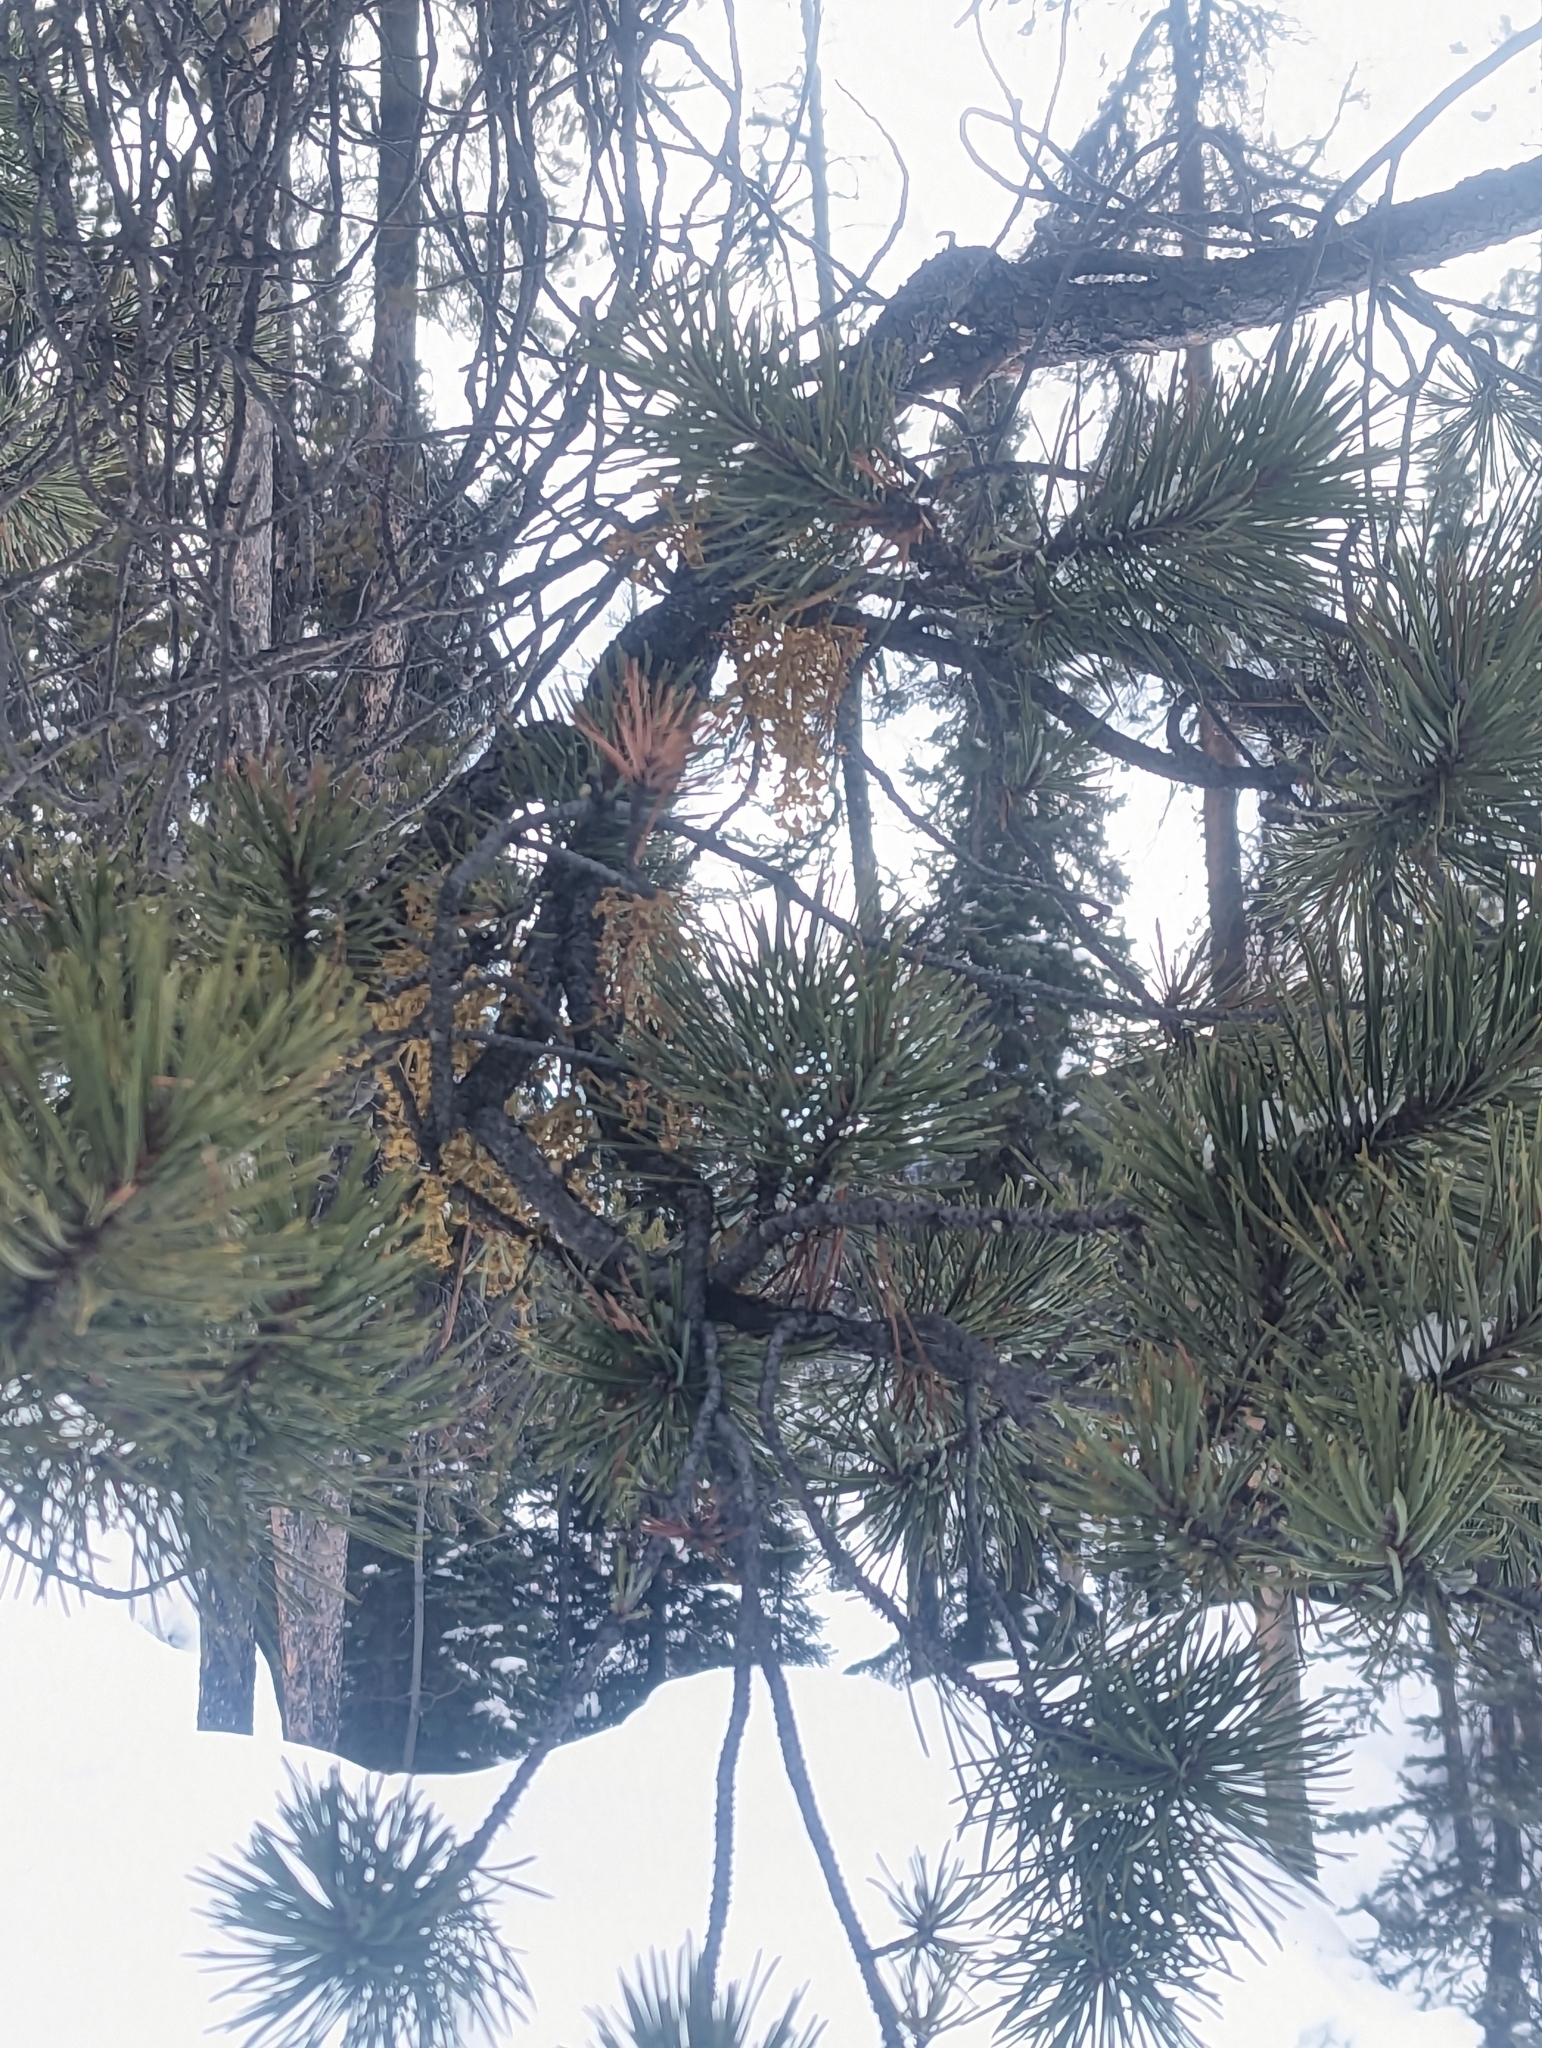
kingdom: Plantae
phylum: Tracheophyta
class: Magnoliopsida
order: Santalales
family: Viscaceae
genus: Arceuthobium
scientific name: Arceuthobium americanum
